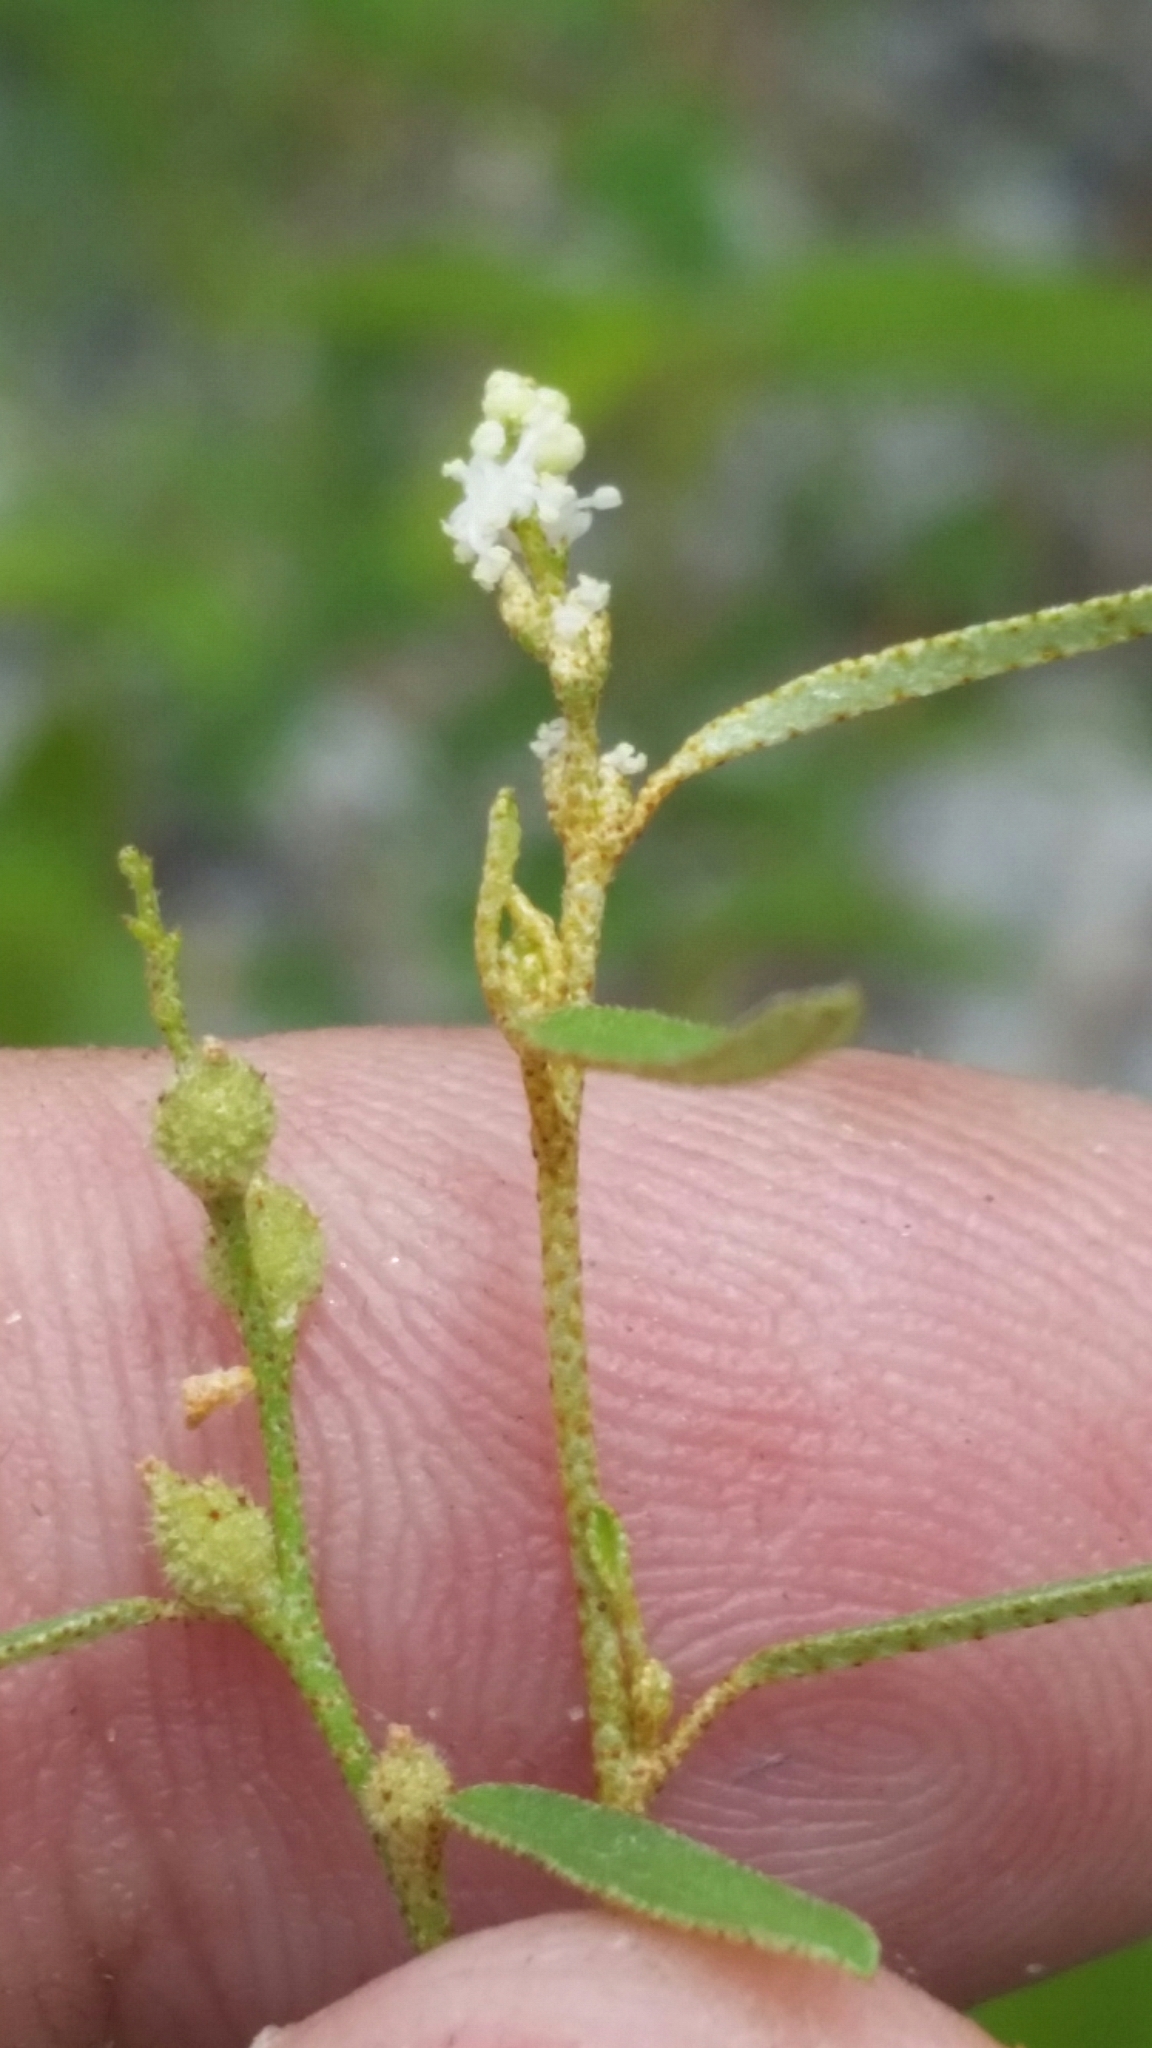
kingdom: Plantae
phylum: Tracheophyta
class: Magnoliopsida
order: Malpighiales
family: Euphorbiaceae
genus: Croton
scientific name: Croton michauxii
